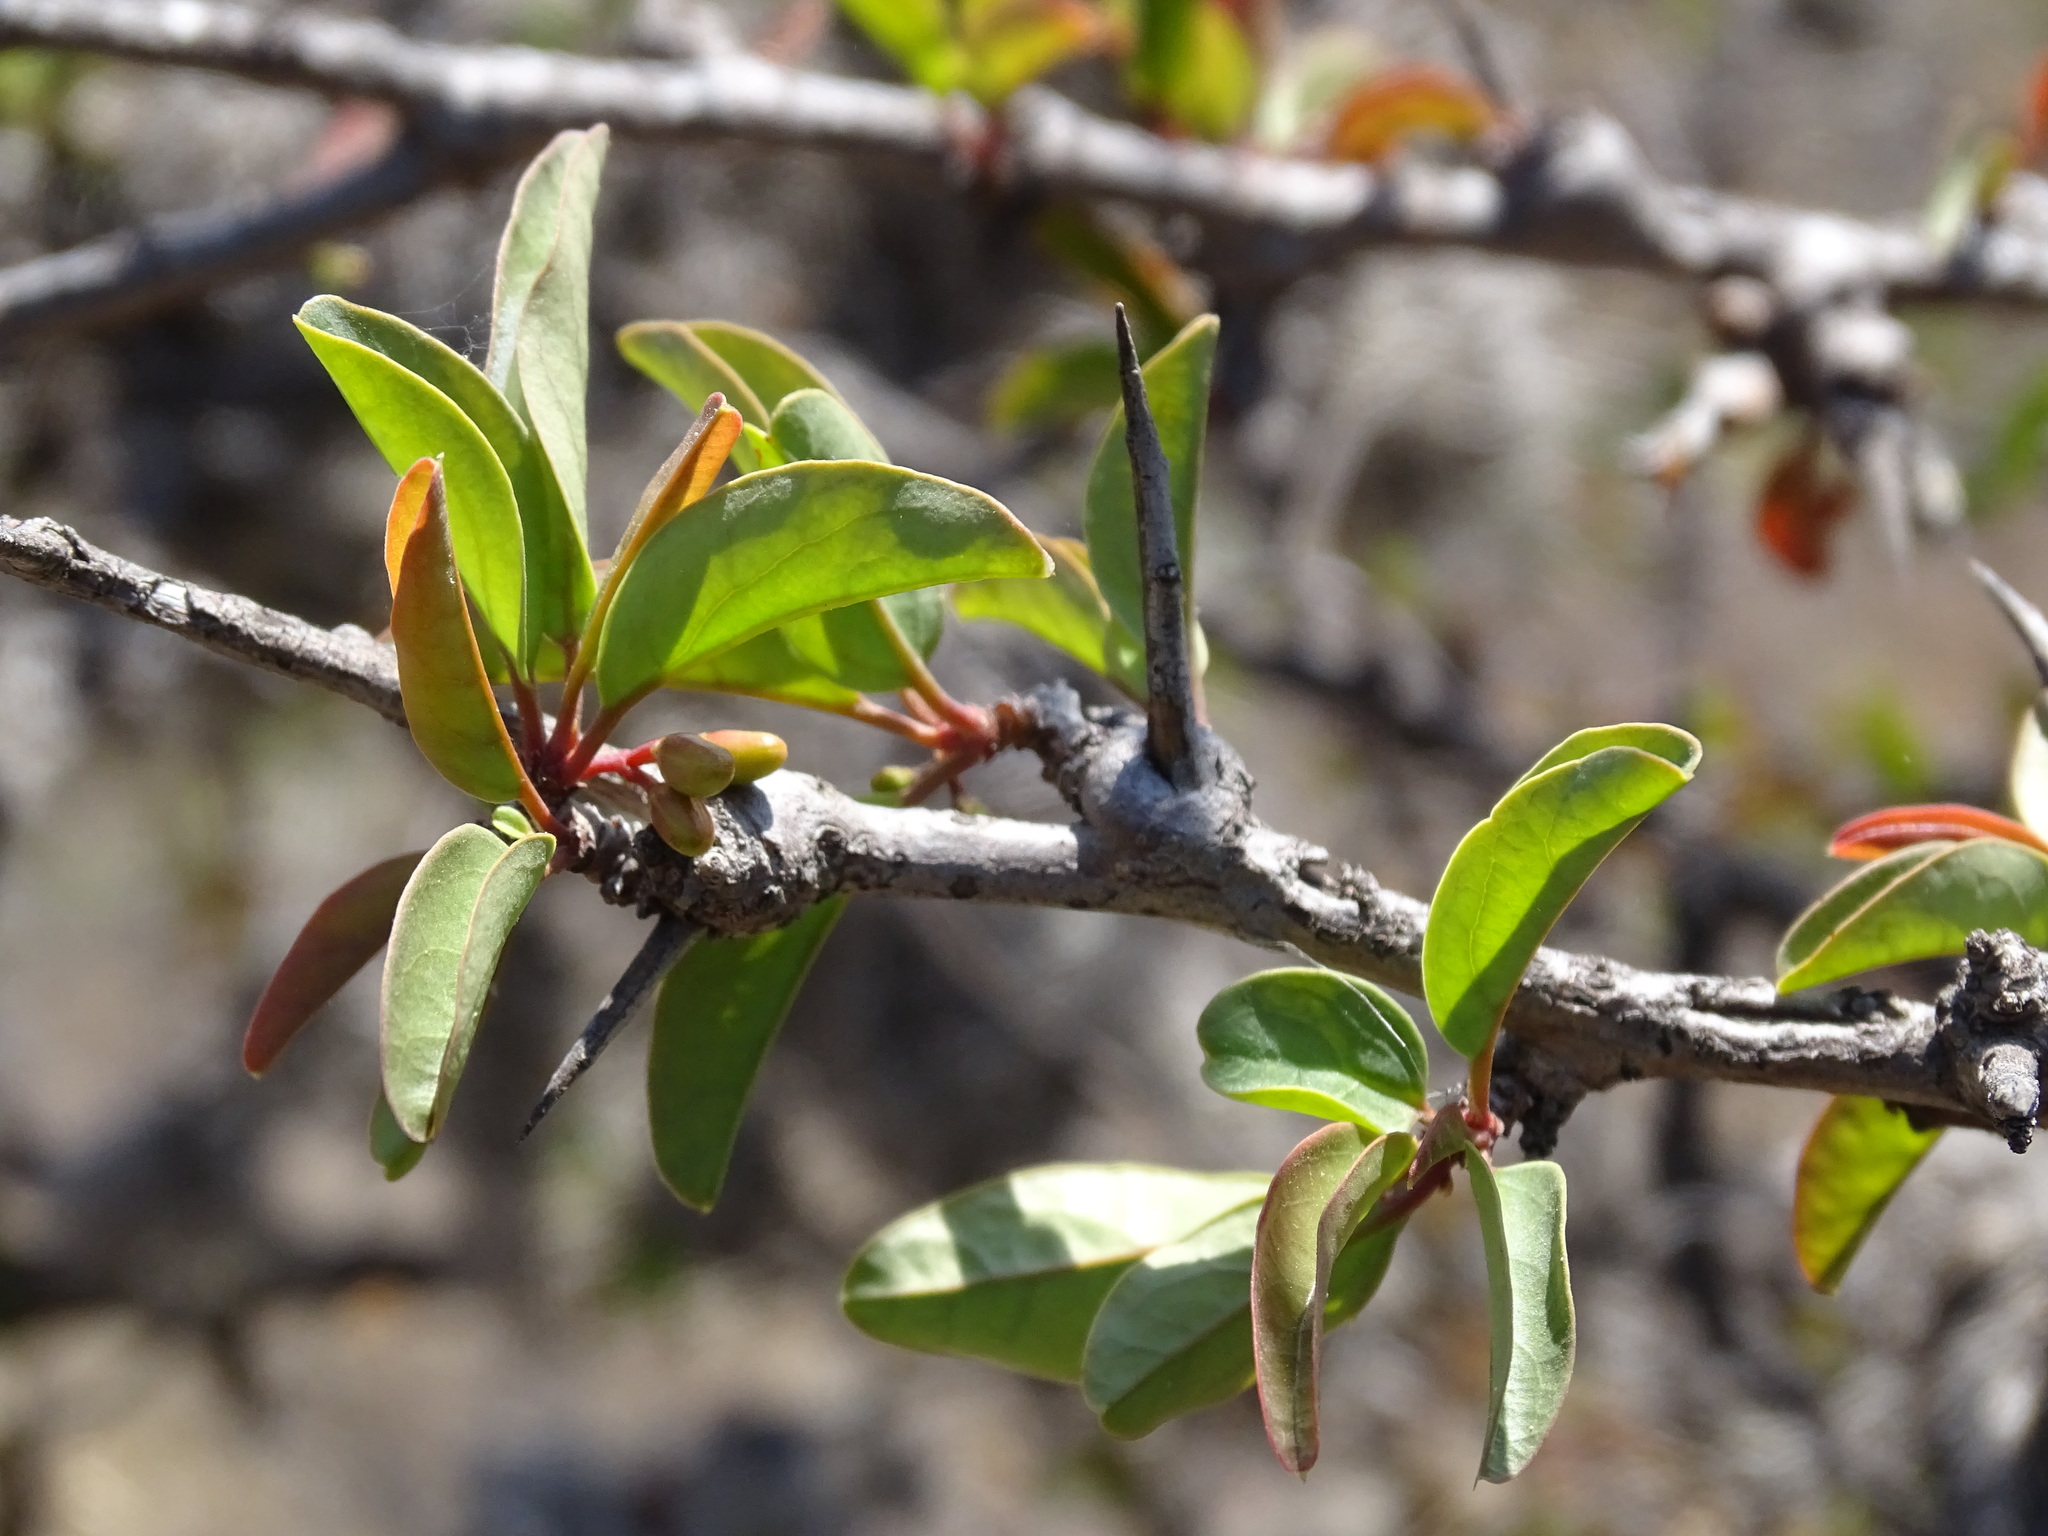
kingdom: Plantae
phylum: Tracheophyta
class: Magnoliopsida
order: Santalales
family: Ximeniaceae
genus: Ximenia
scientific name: Ximenia americana
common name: Tallowwood
